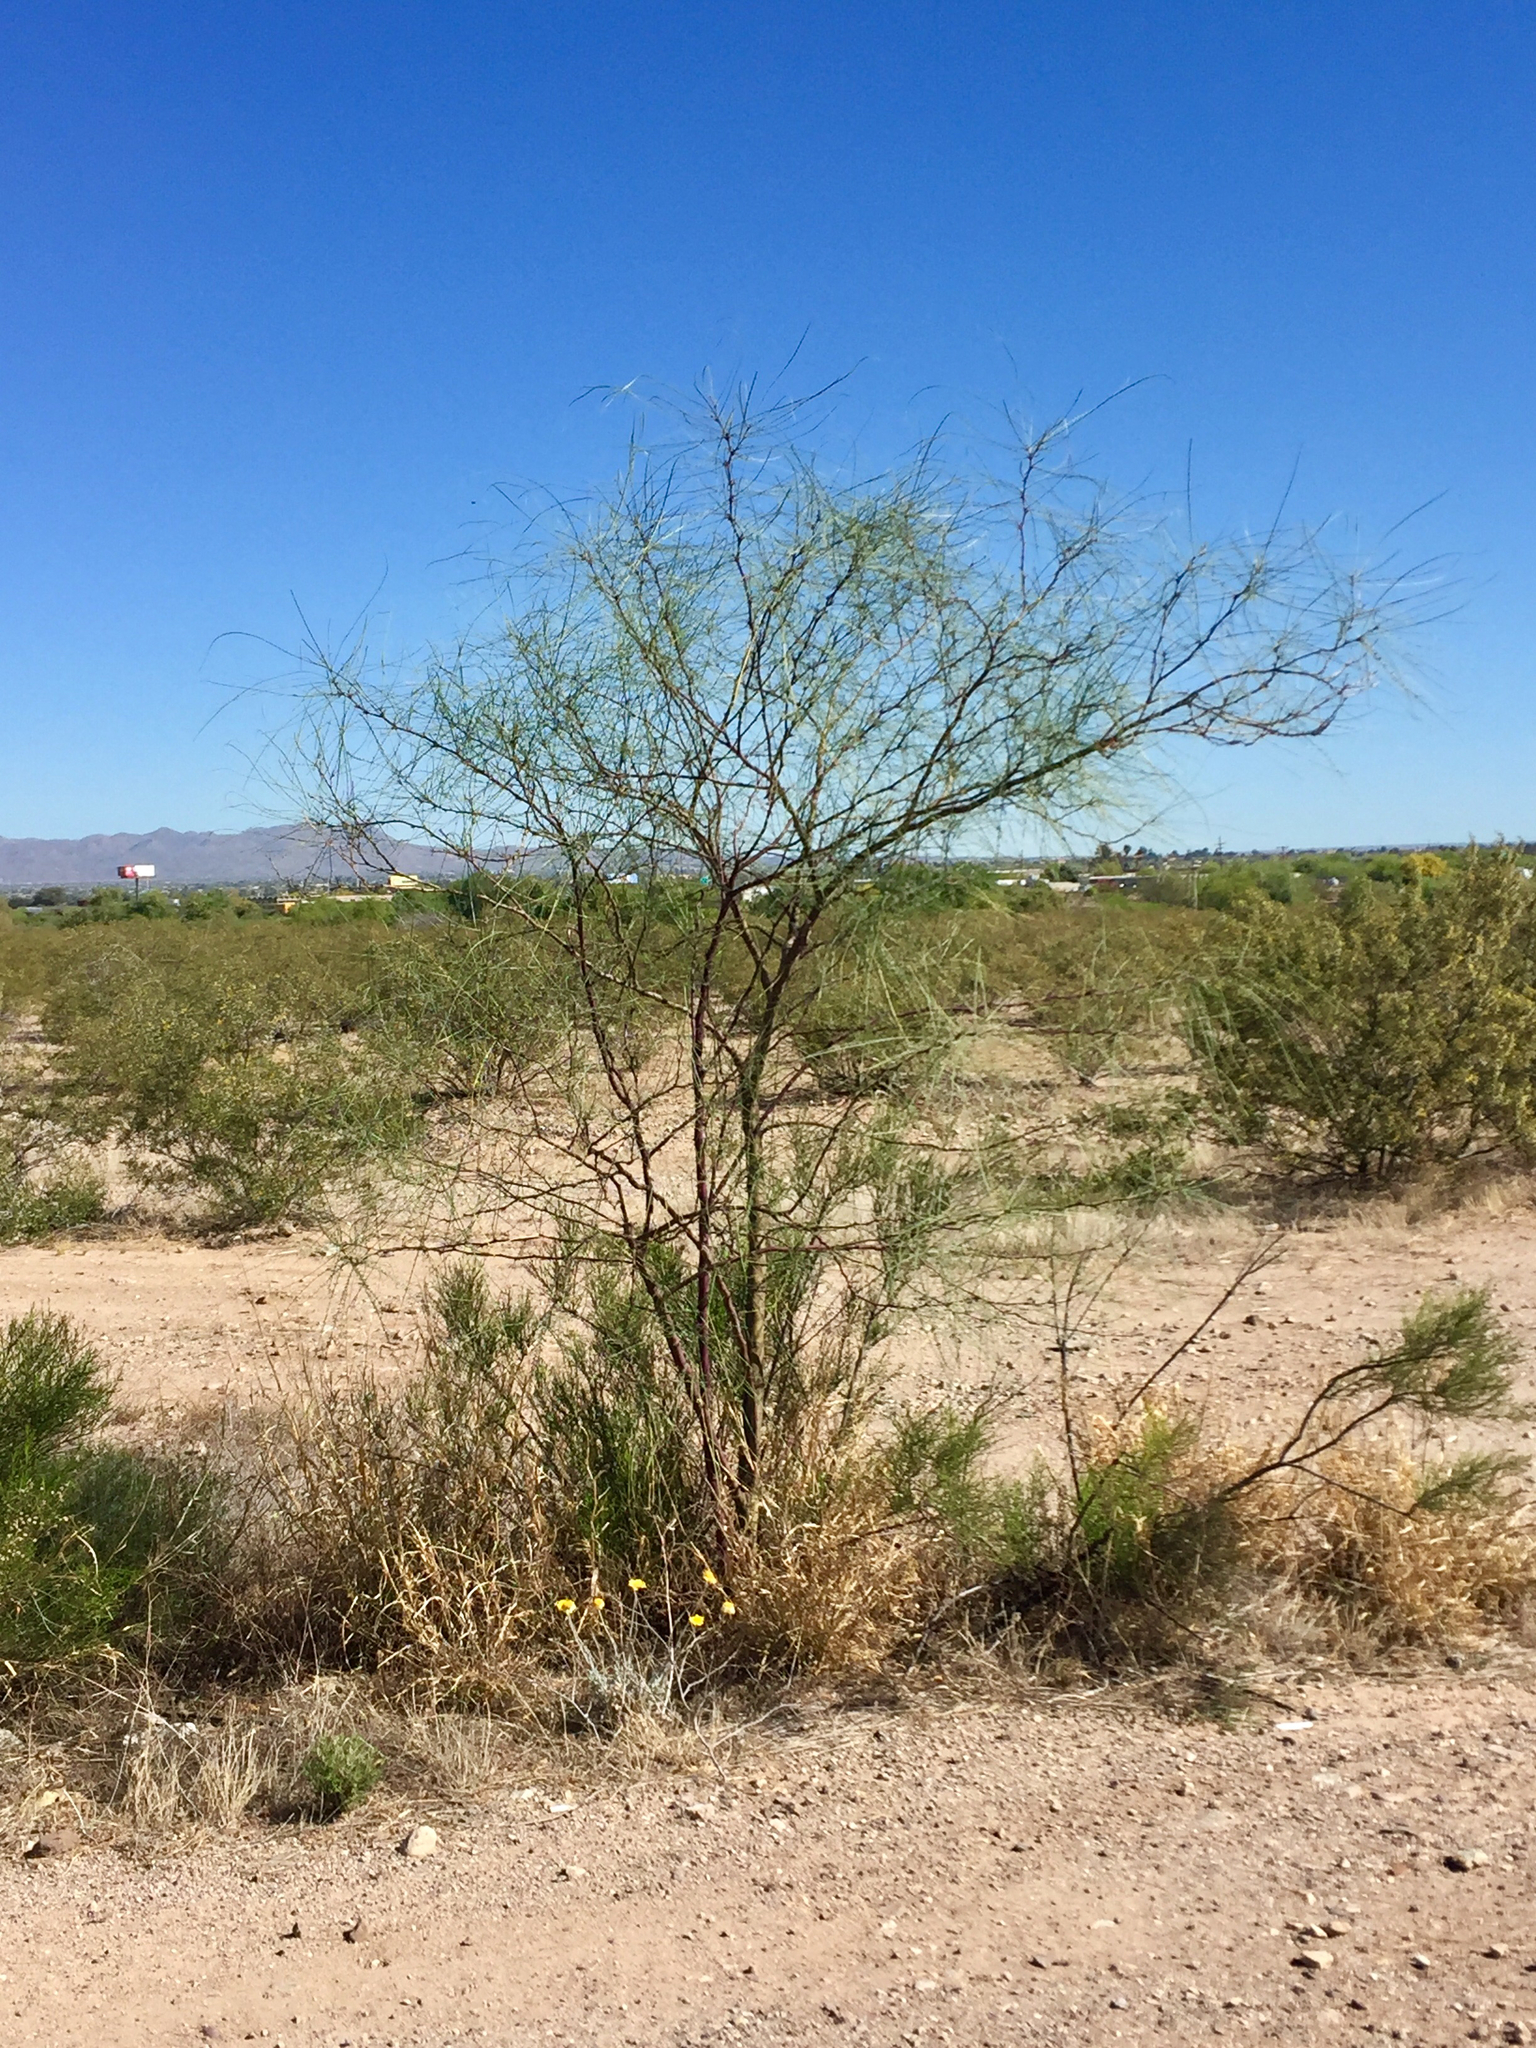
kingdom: Plantae
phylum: Tracheophyta
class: Magnoliopsida
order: Fabales
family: Fabaceae
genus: Parkinsonia
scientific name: Parkinsonia aculeata
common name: Jerusalem thorn
